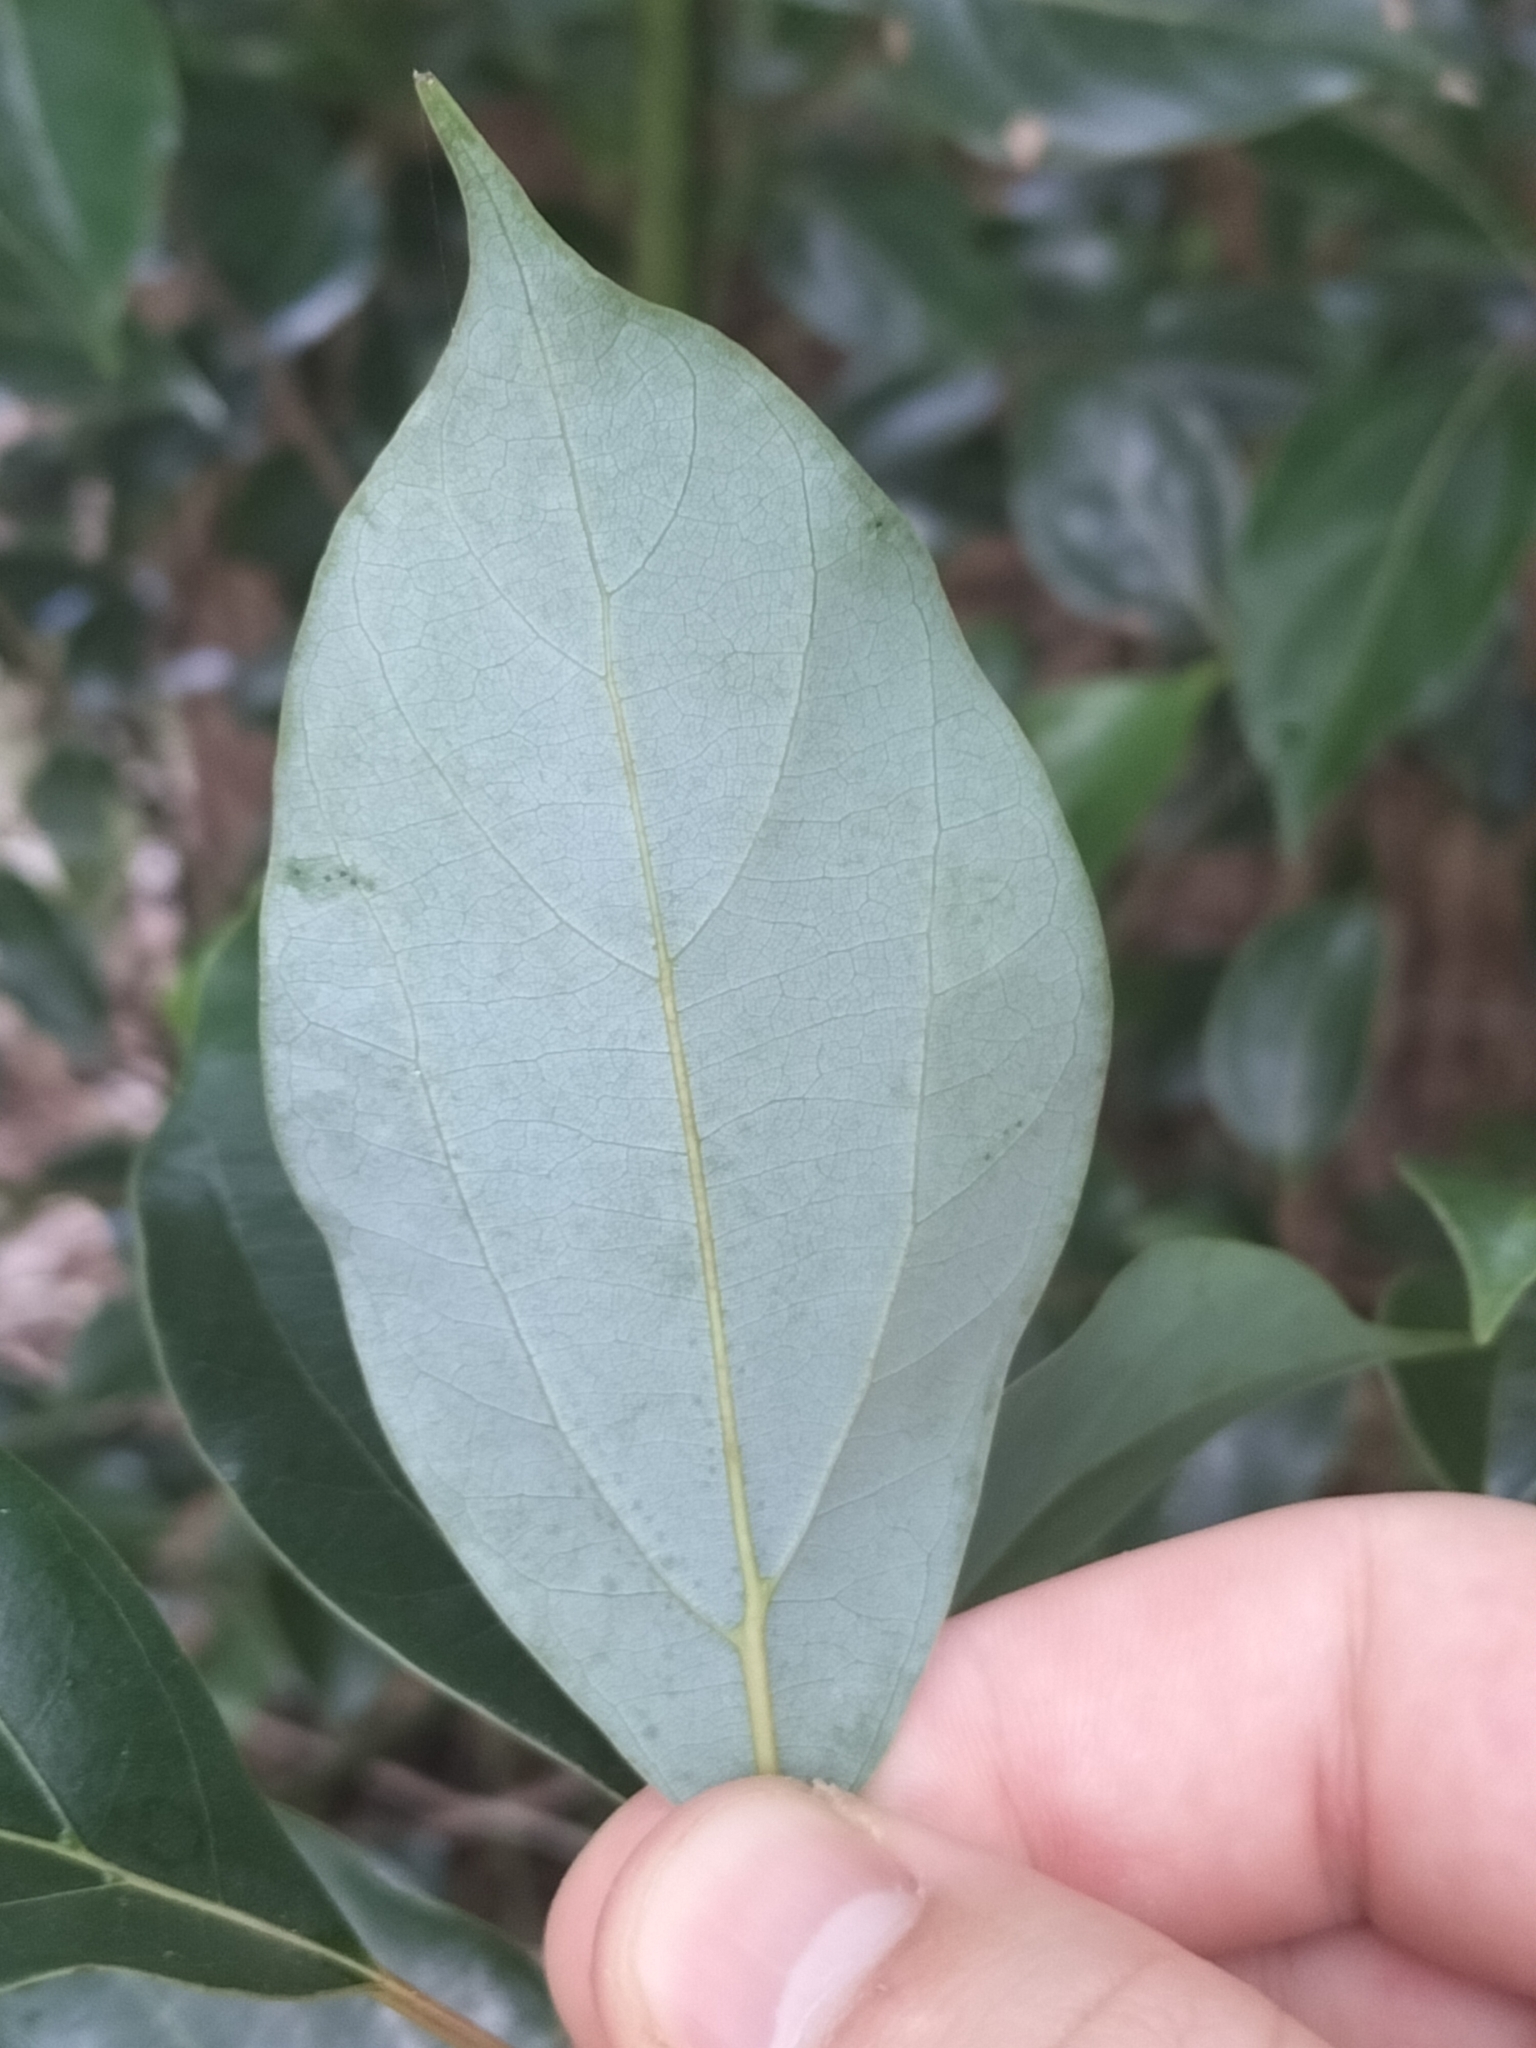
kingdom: Plantae
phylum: Tracheophyta
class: Magnoliopsida
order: Laurales
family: Lauraceae
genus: Cinnamomum
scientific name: Cinnamomum camphora
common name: Camphortree
